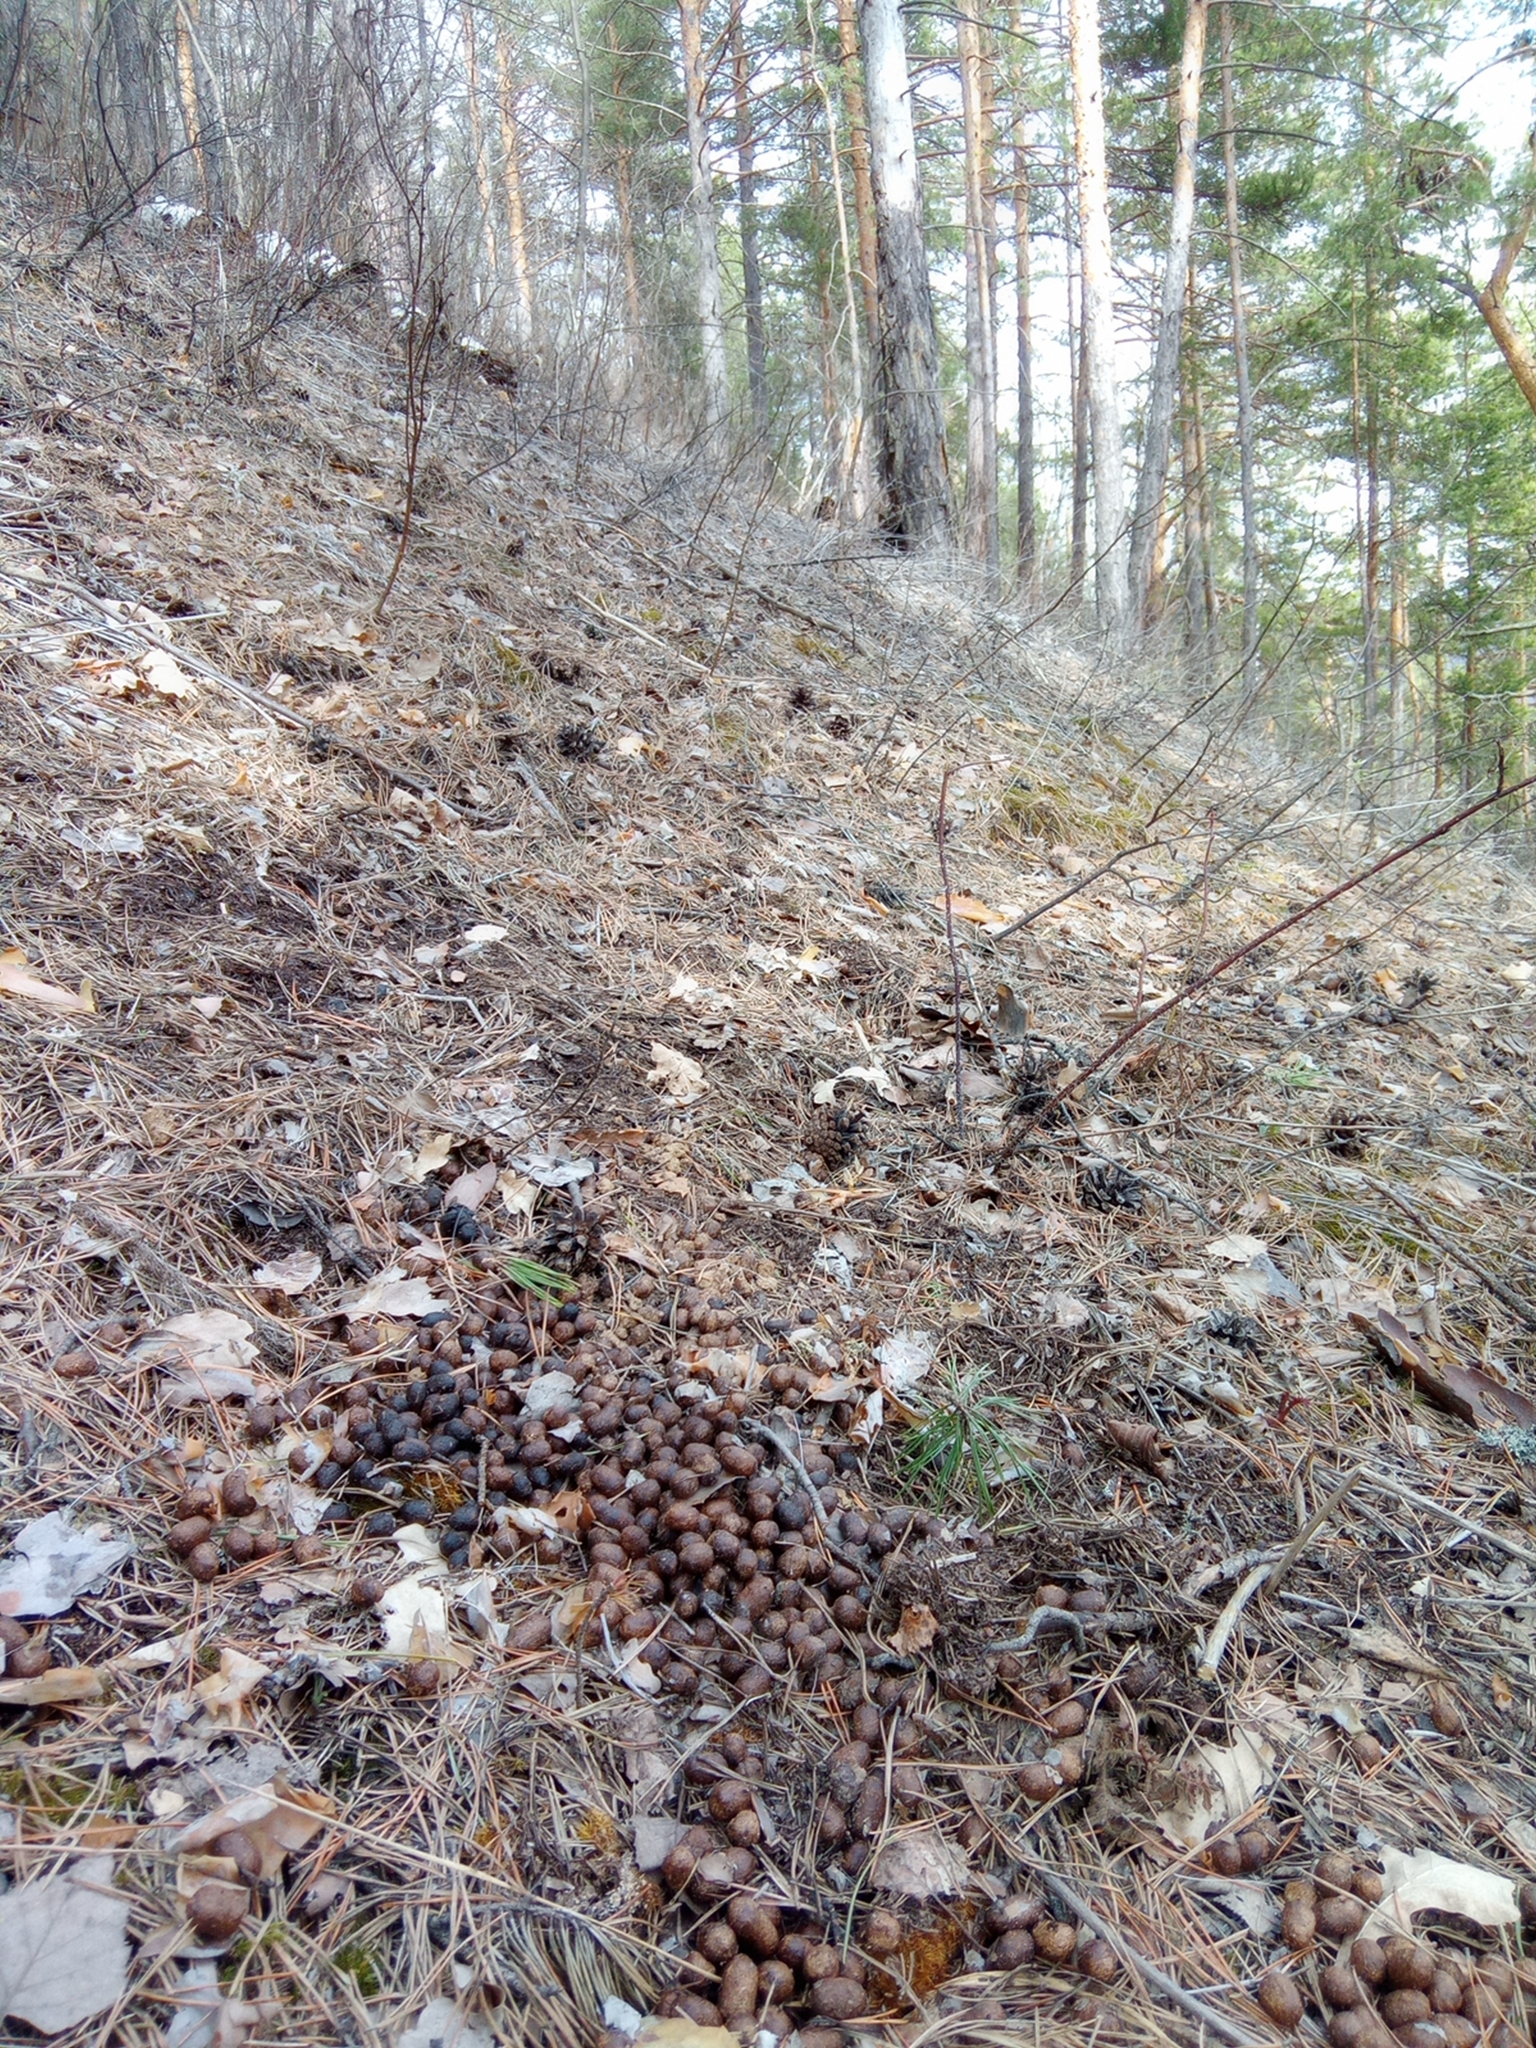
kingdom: Animalia
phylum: Chordata
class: Mammalia
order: Artiodactyla
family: Cervidae
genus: Capreolus
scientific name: Capreolus pygargus
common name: Siberian roe
